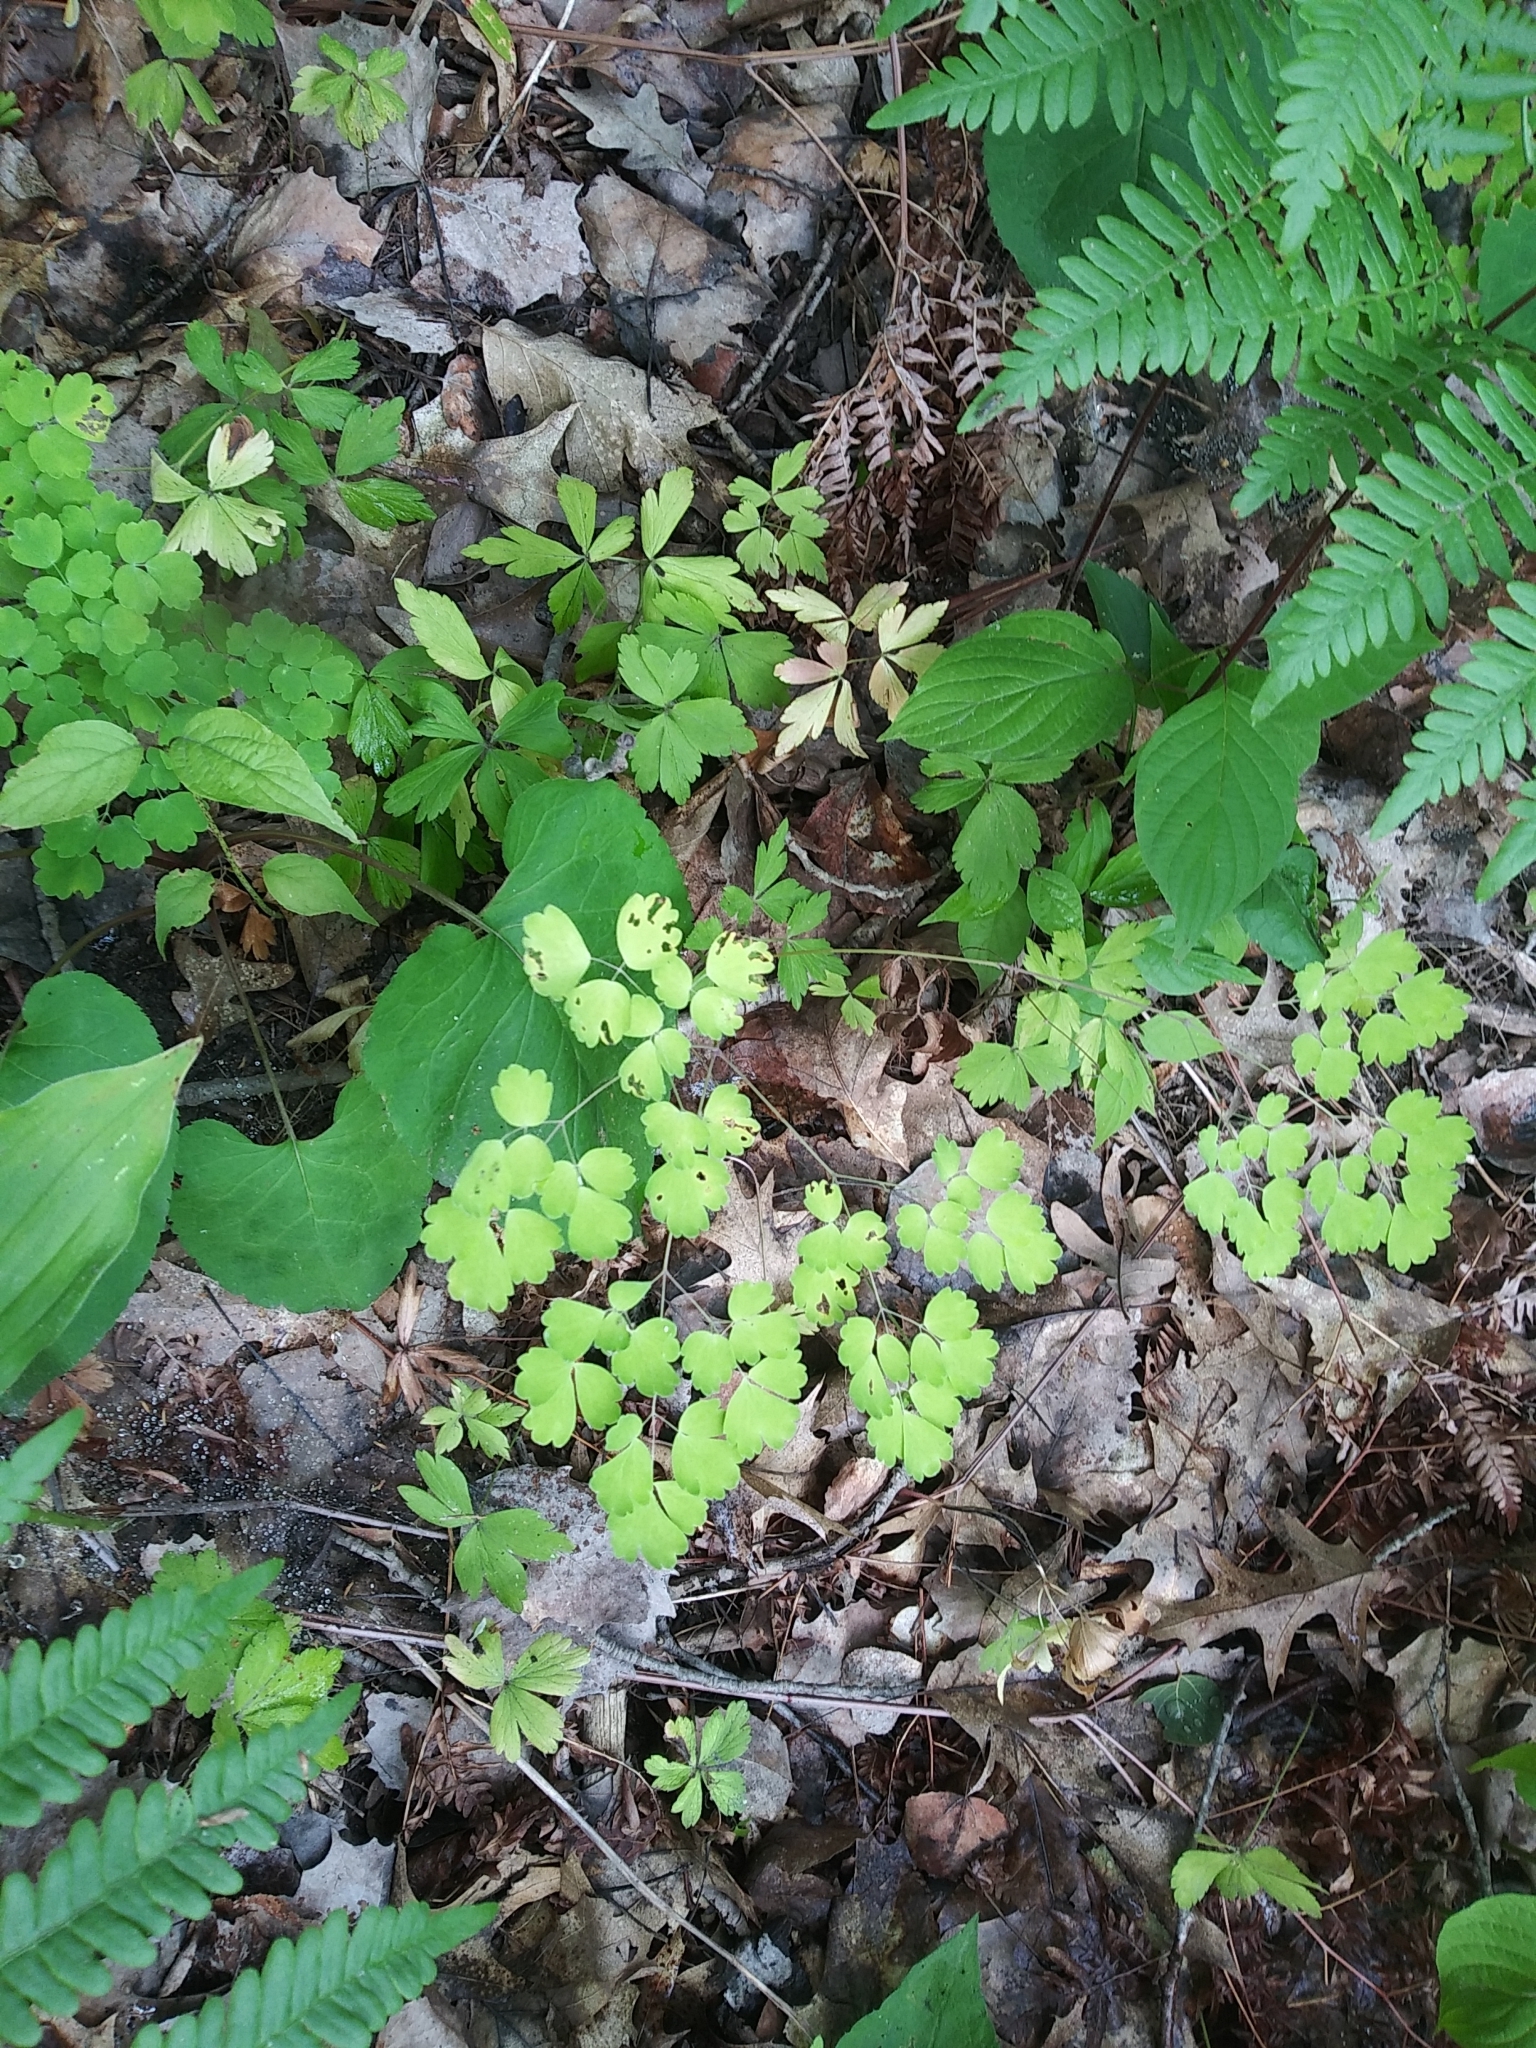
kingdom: Plantae
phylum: Tracheophyta
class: Magnoliopsida
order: Ranunculales
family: Ranunculaceae
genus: Thalictrum
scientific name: Thalictrum dioicum
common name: Early meadow-rue
